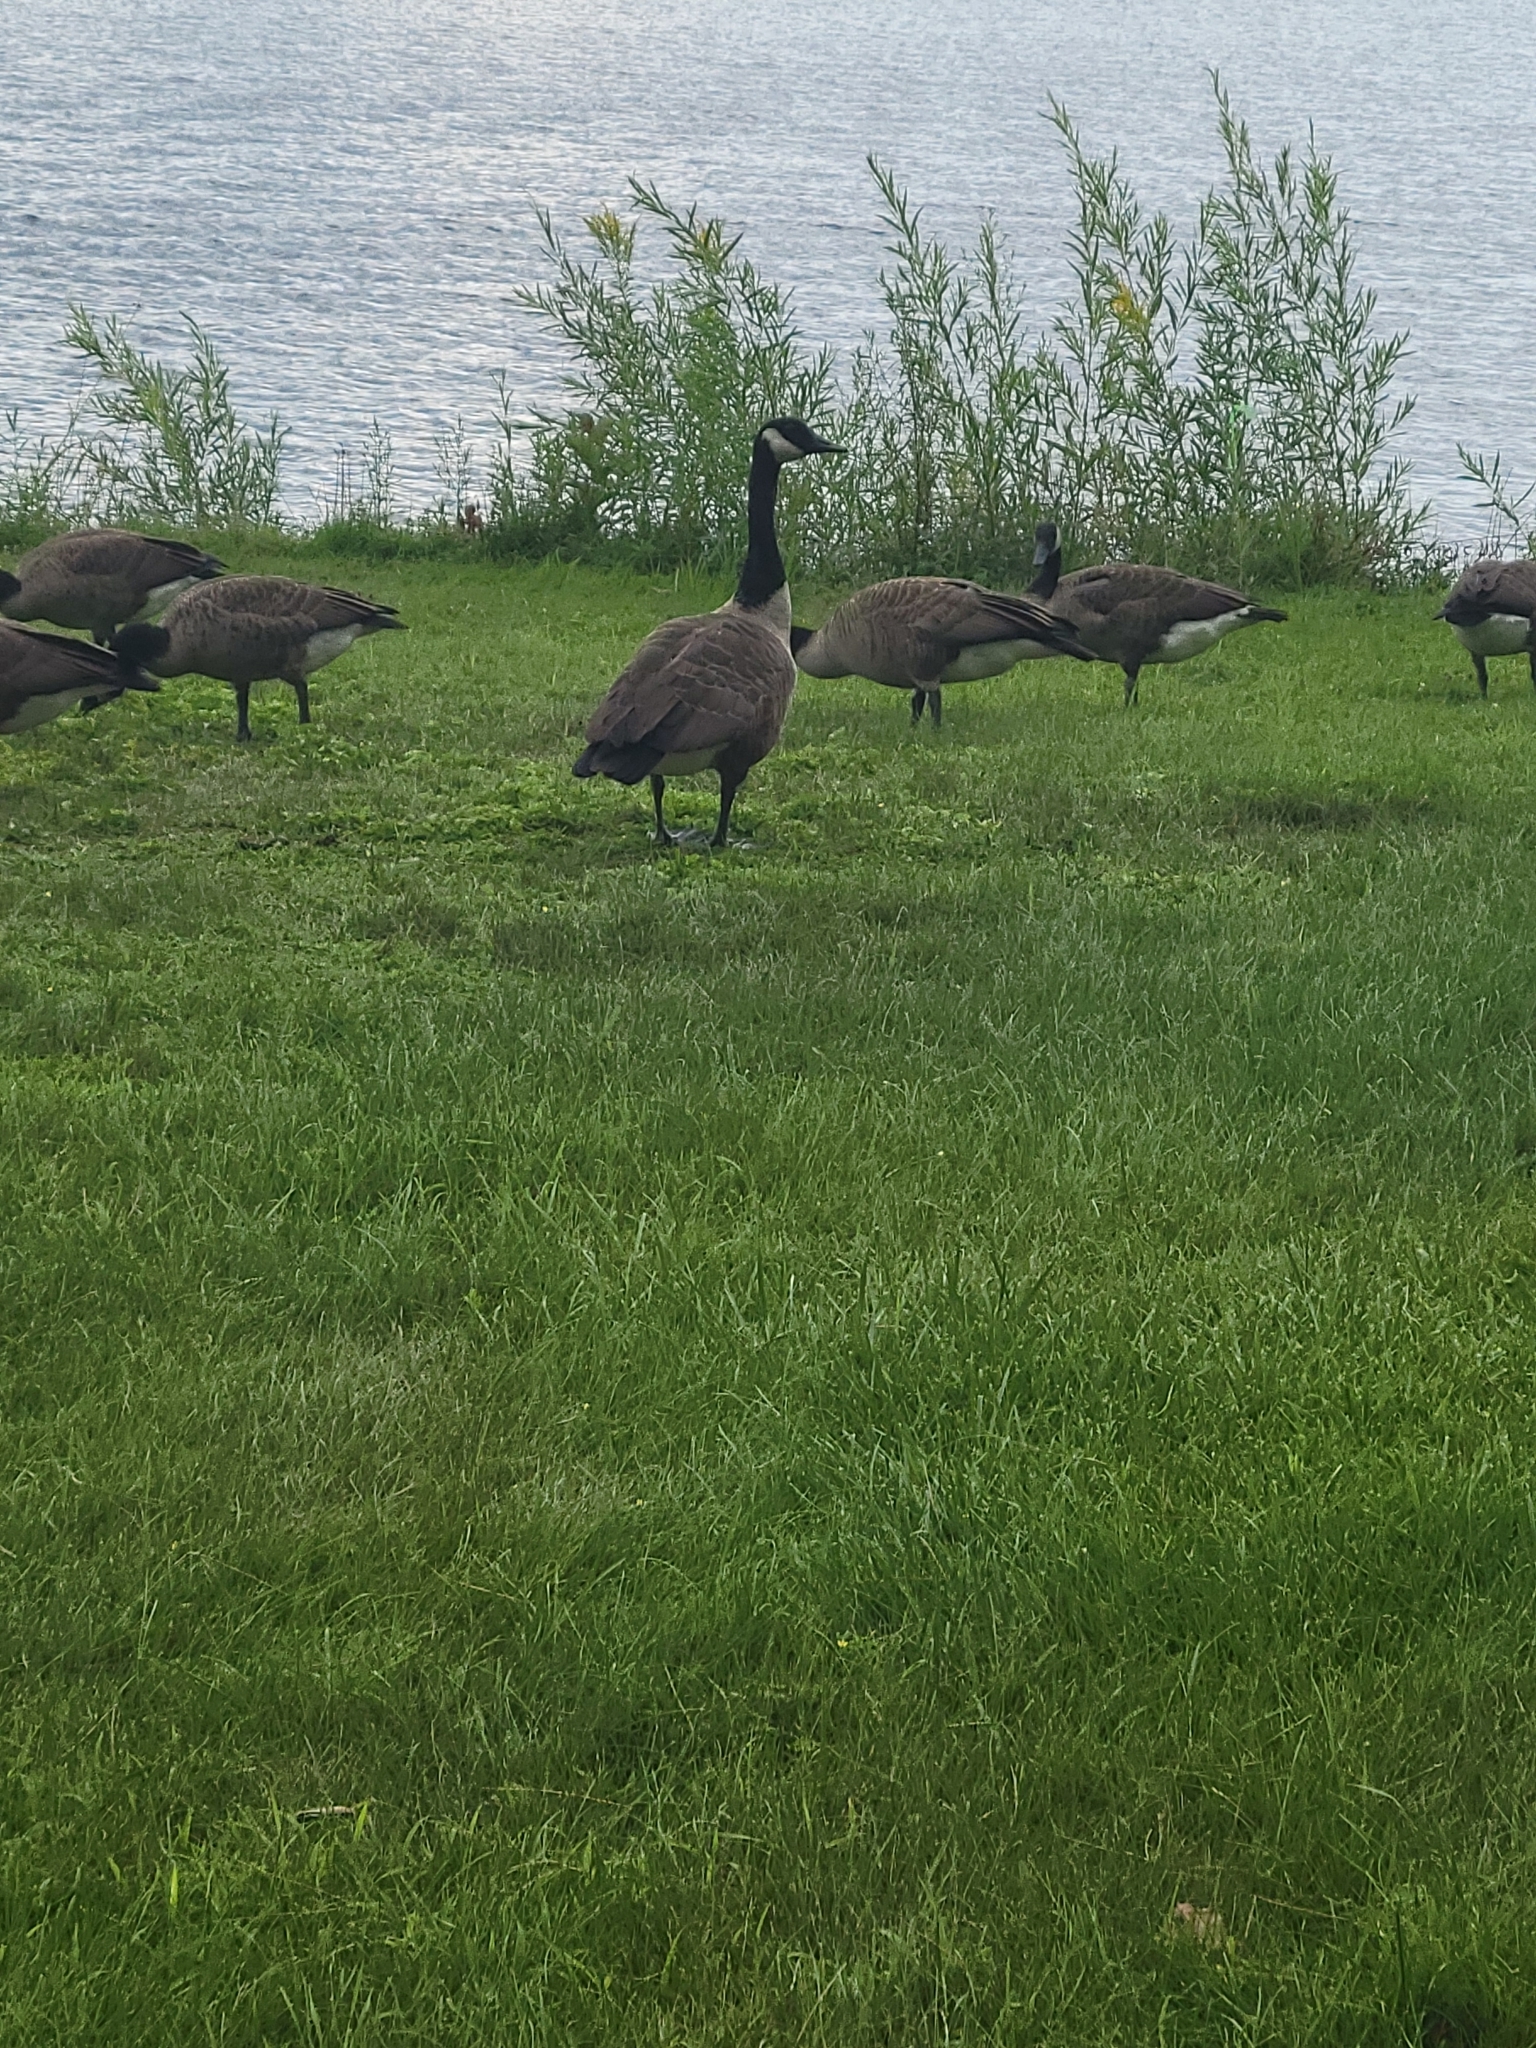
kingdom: Animalia
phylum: Chordata
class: Aves
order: Anseriformes
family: Anatidae
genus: Branta
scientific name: Branta canadensis
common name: Canada goose
